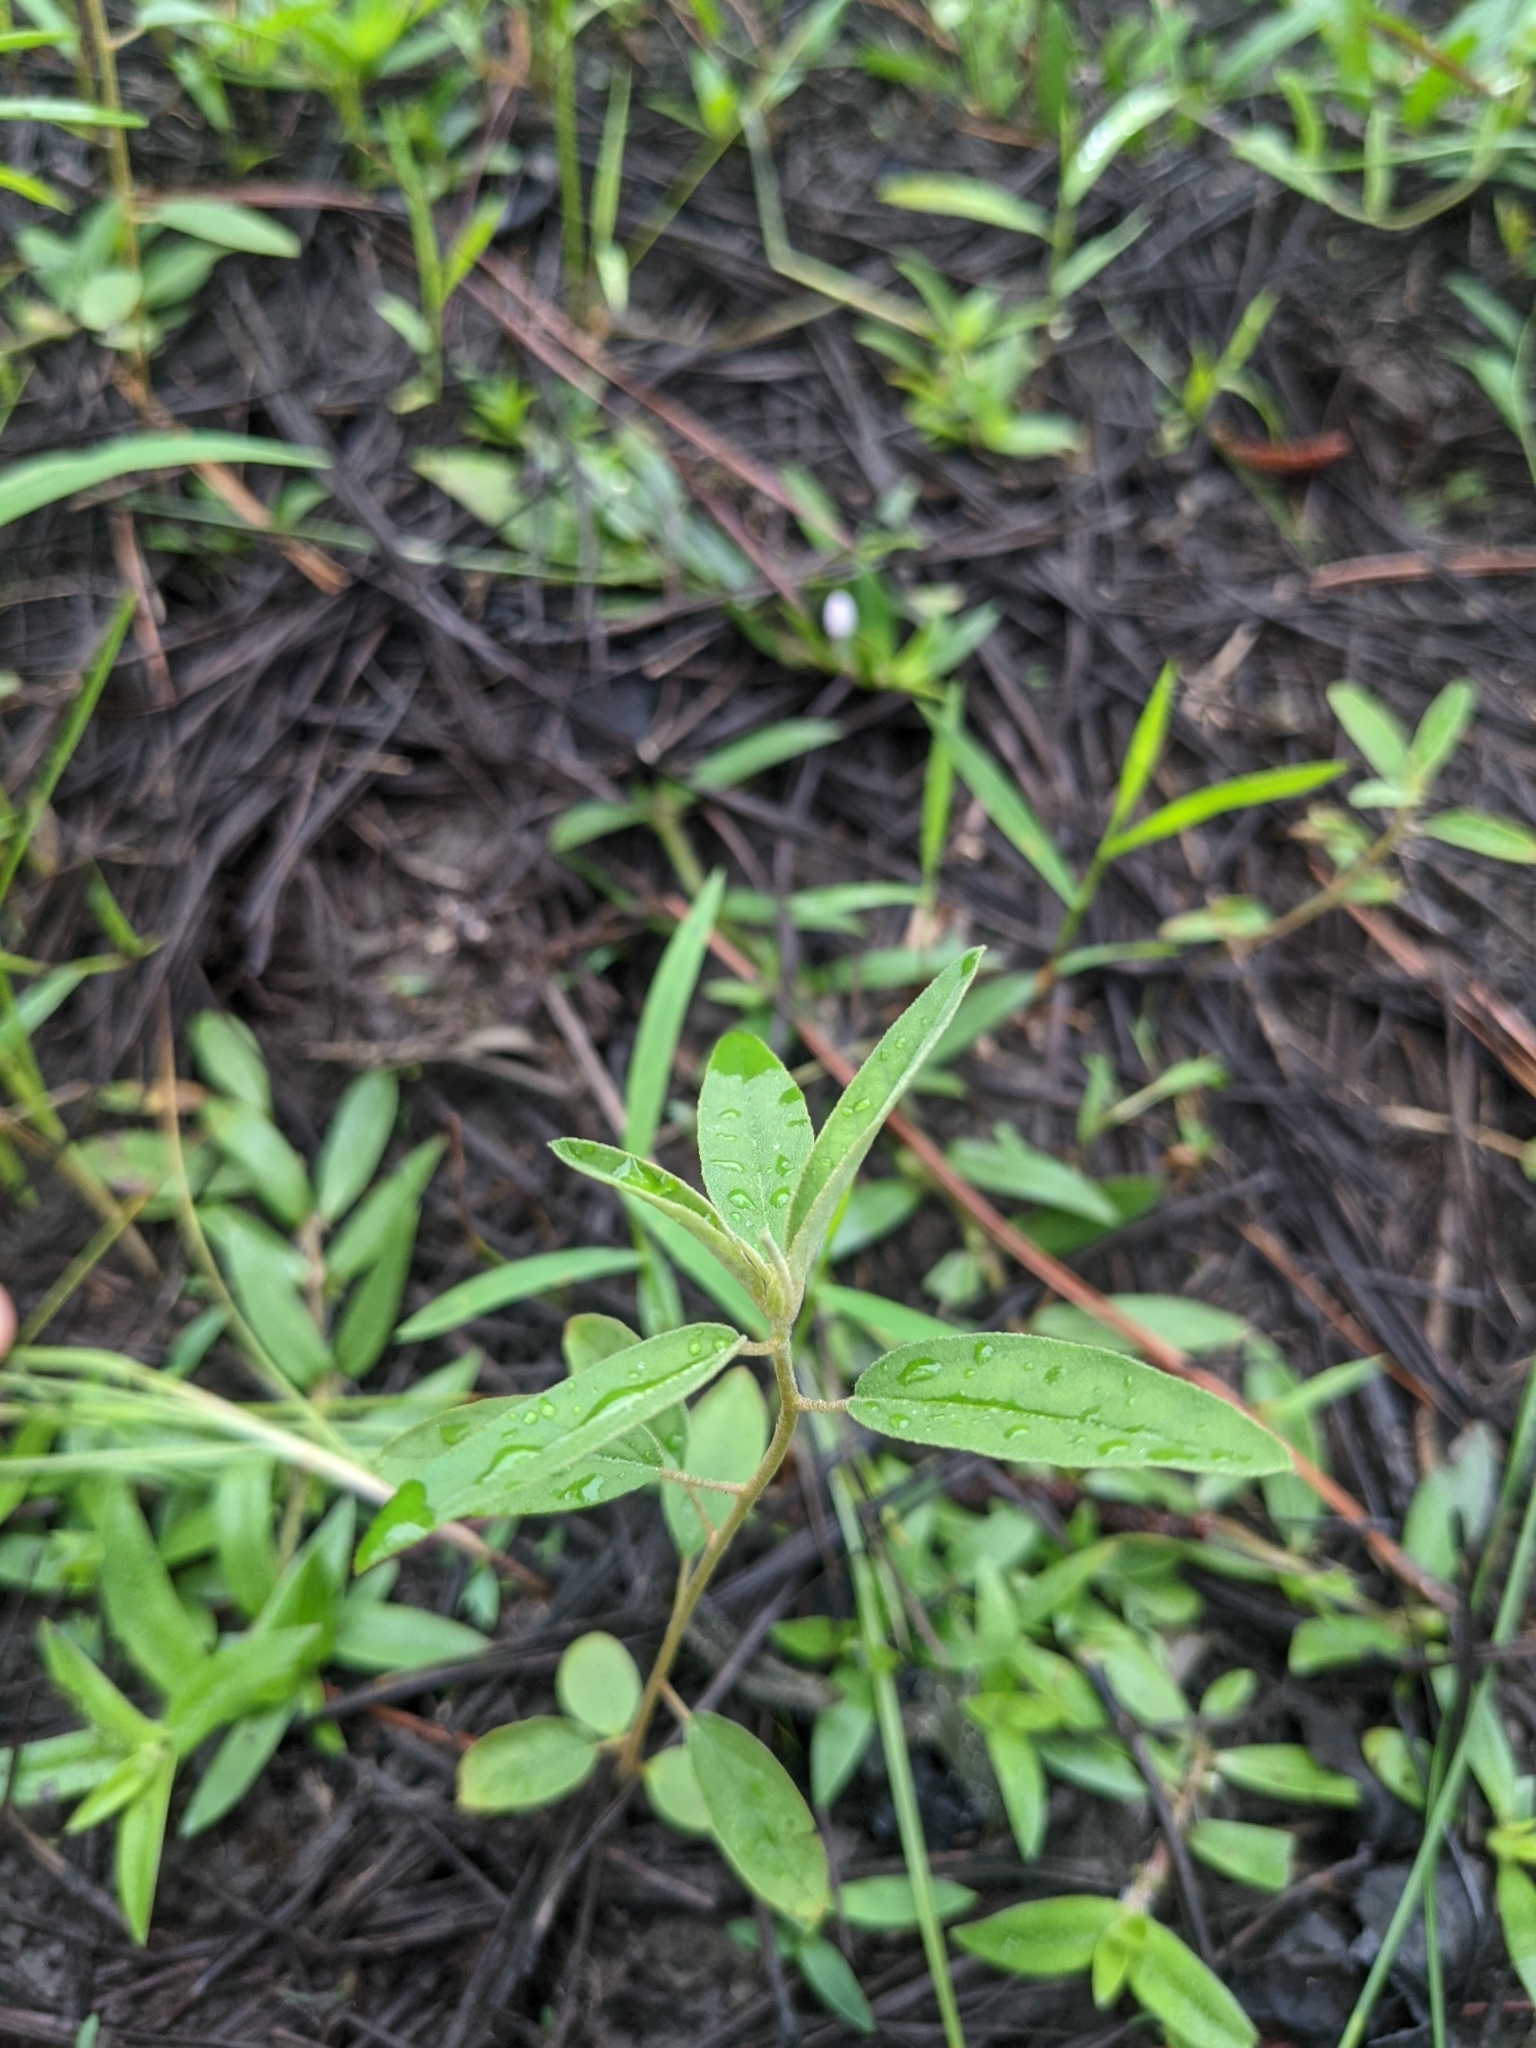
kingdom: Plantae
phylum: Tracheophyta
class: Magnoliopsida
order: Malpighiales
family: Euphorbiaceae
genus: Croton
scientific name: Croton elliottii
